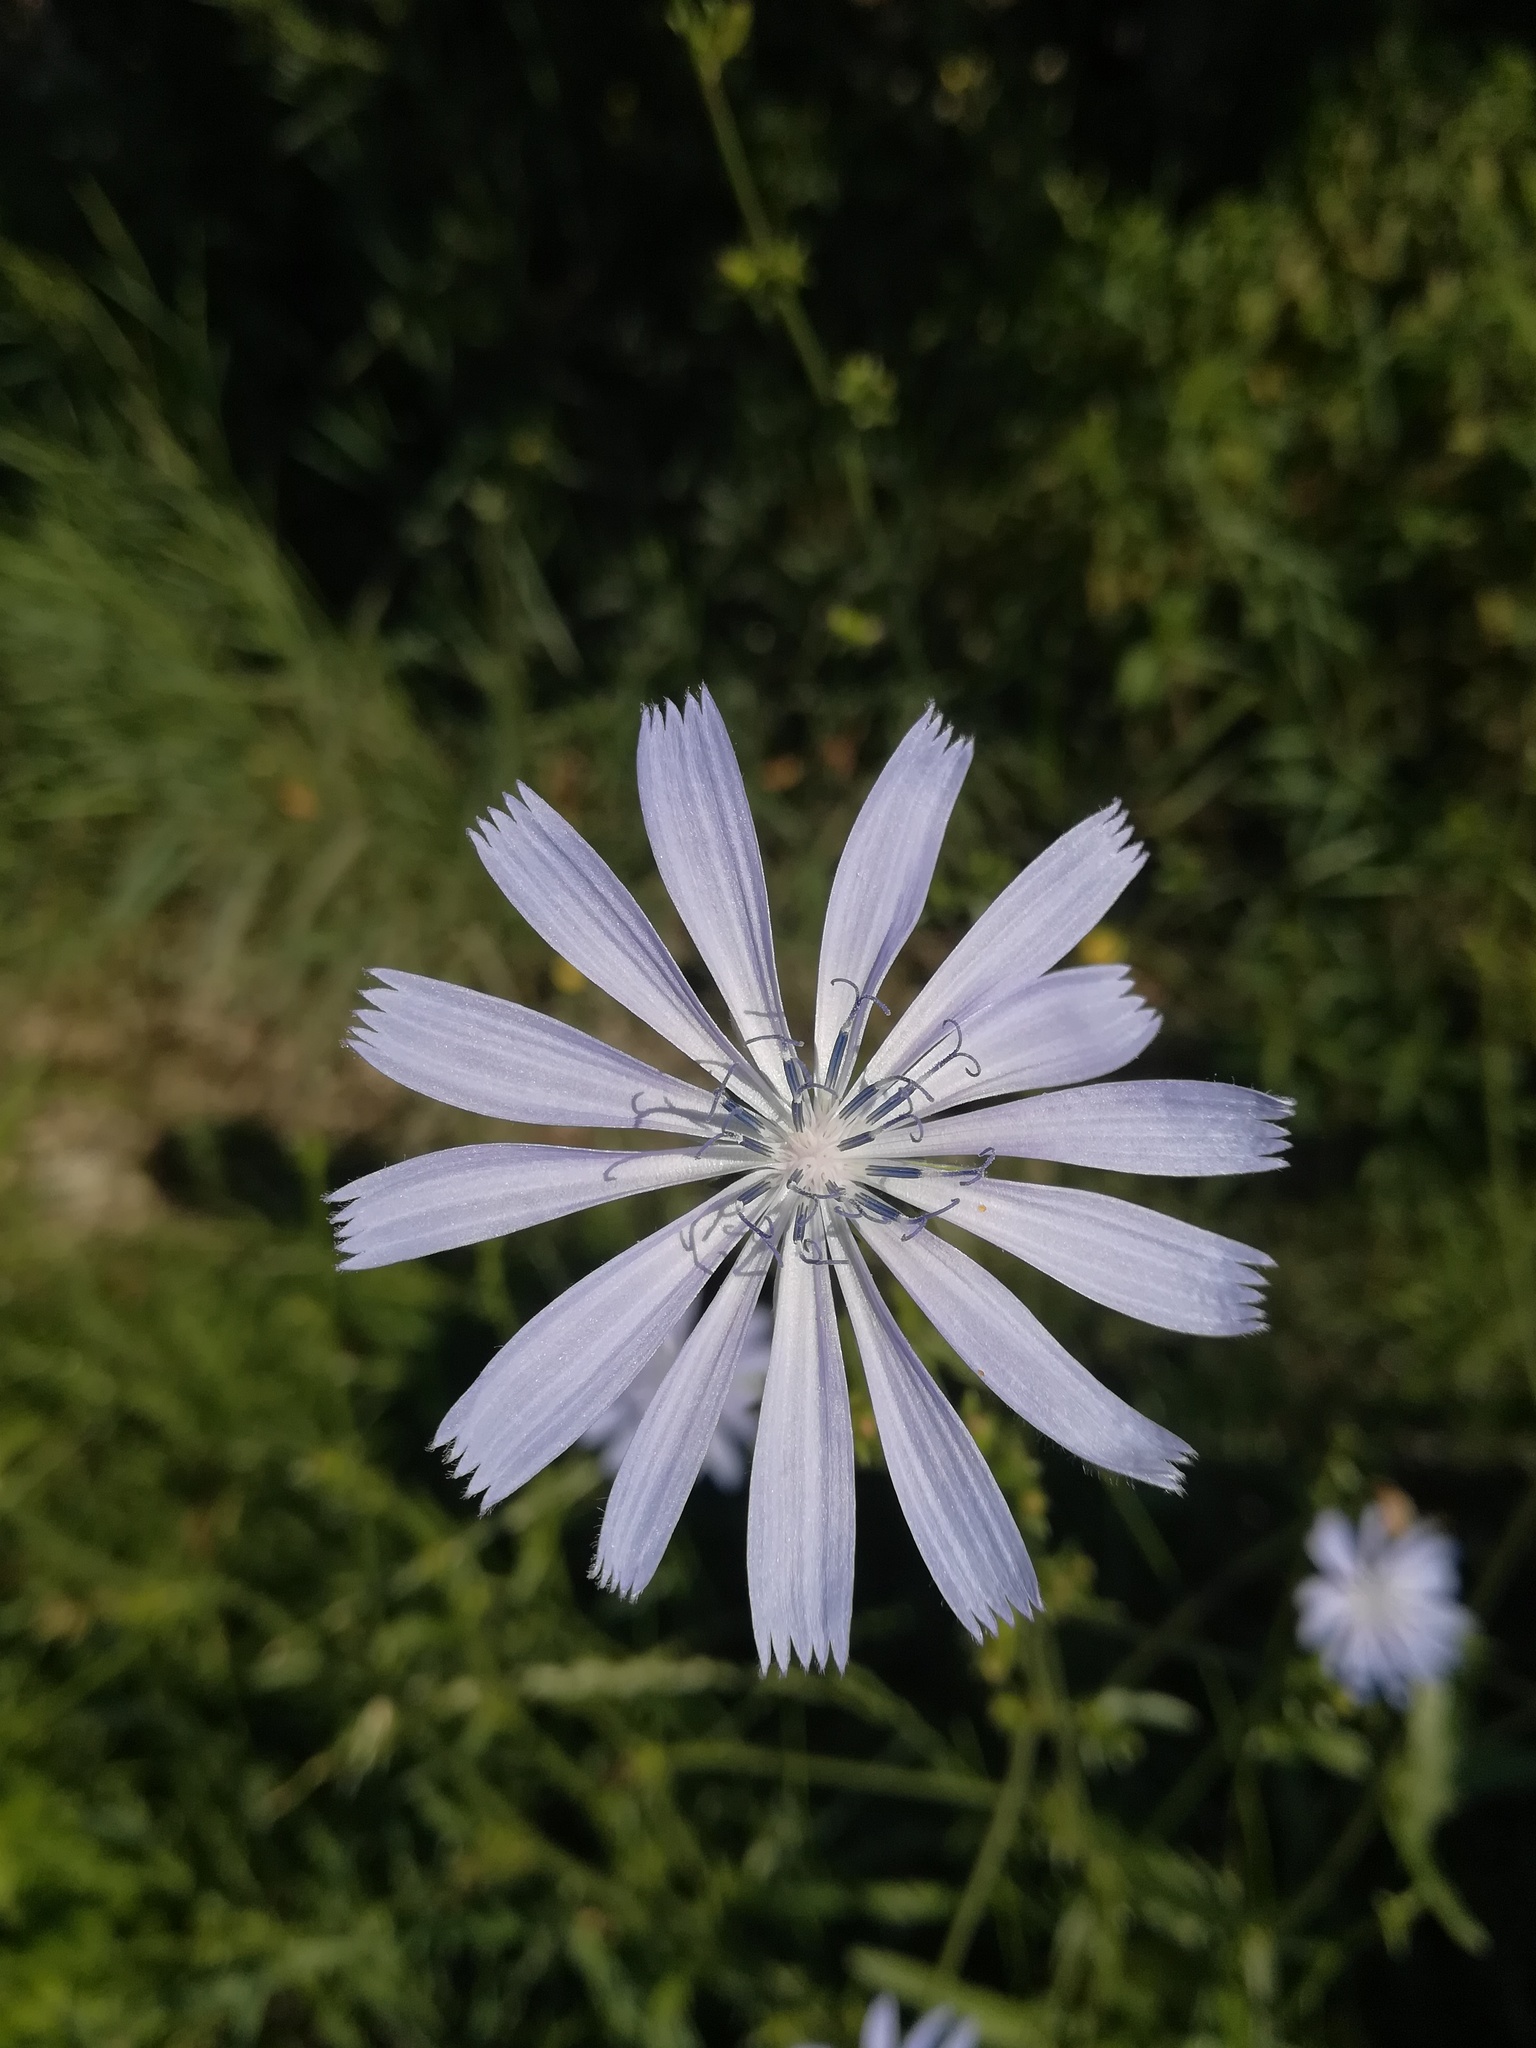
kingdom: Plantae
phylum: Tracheophyta
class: Magnoliopsida
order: Asterales
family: Asteraceae
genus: Cichorium
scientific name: Cichorium intybus
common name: Chicory
